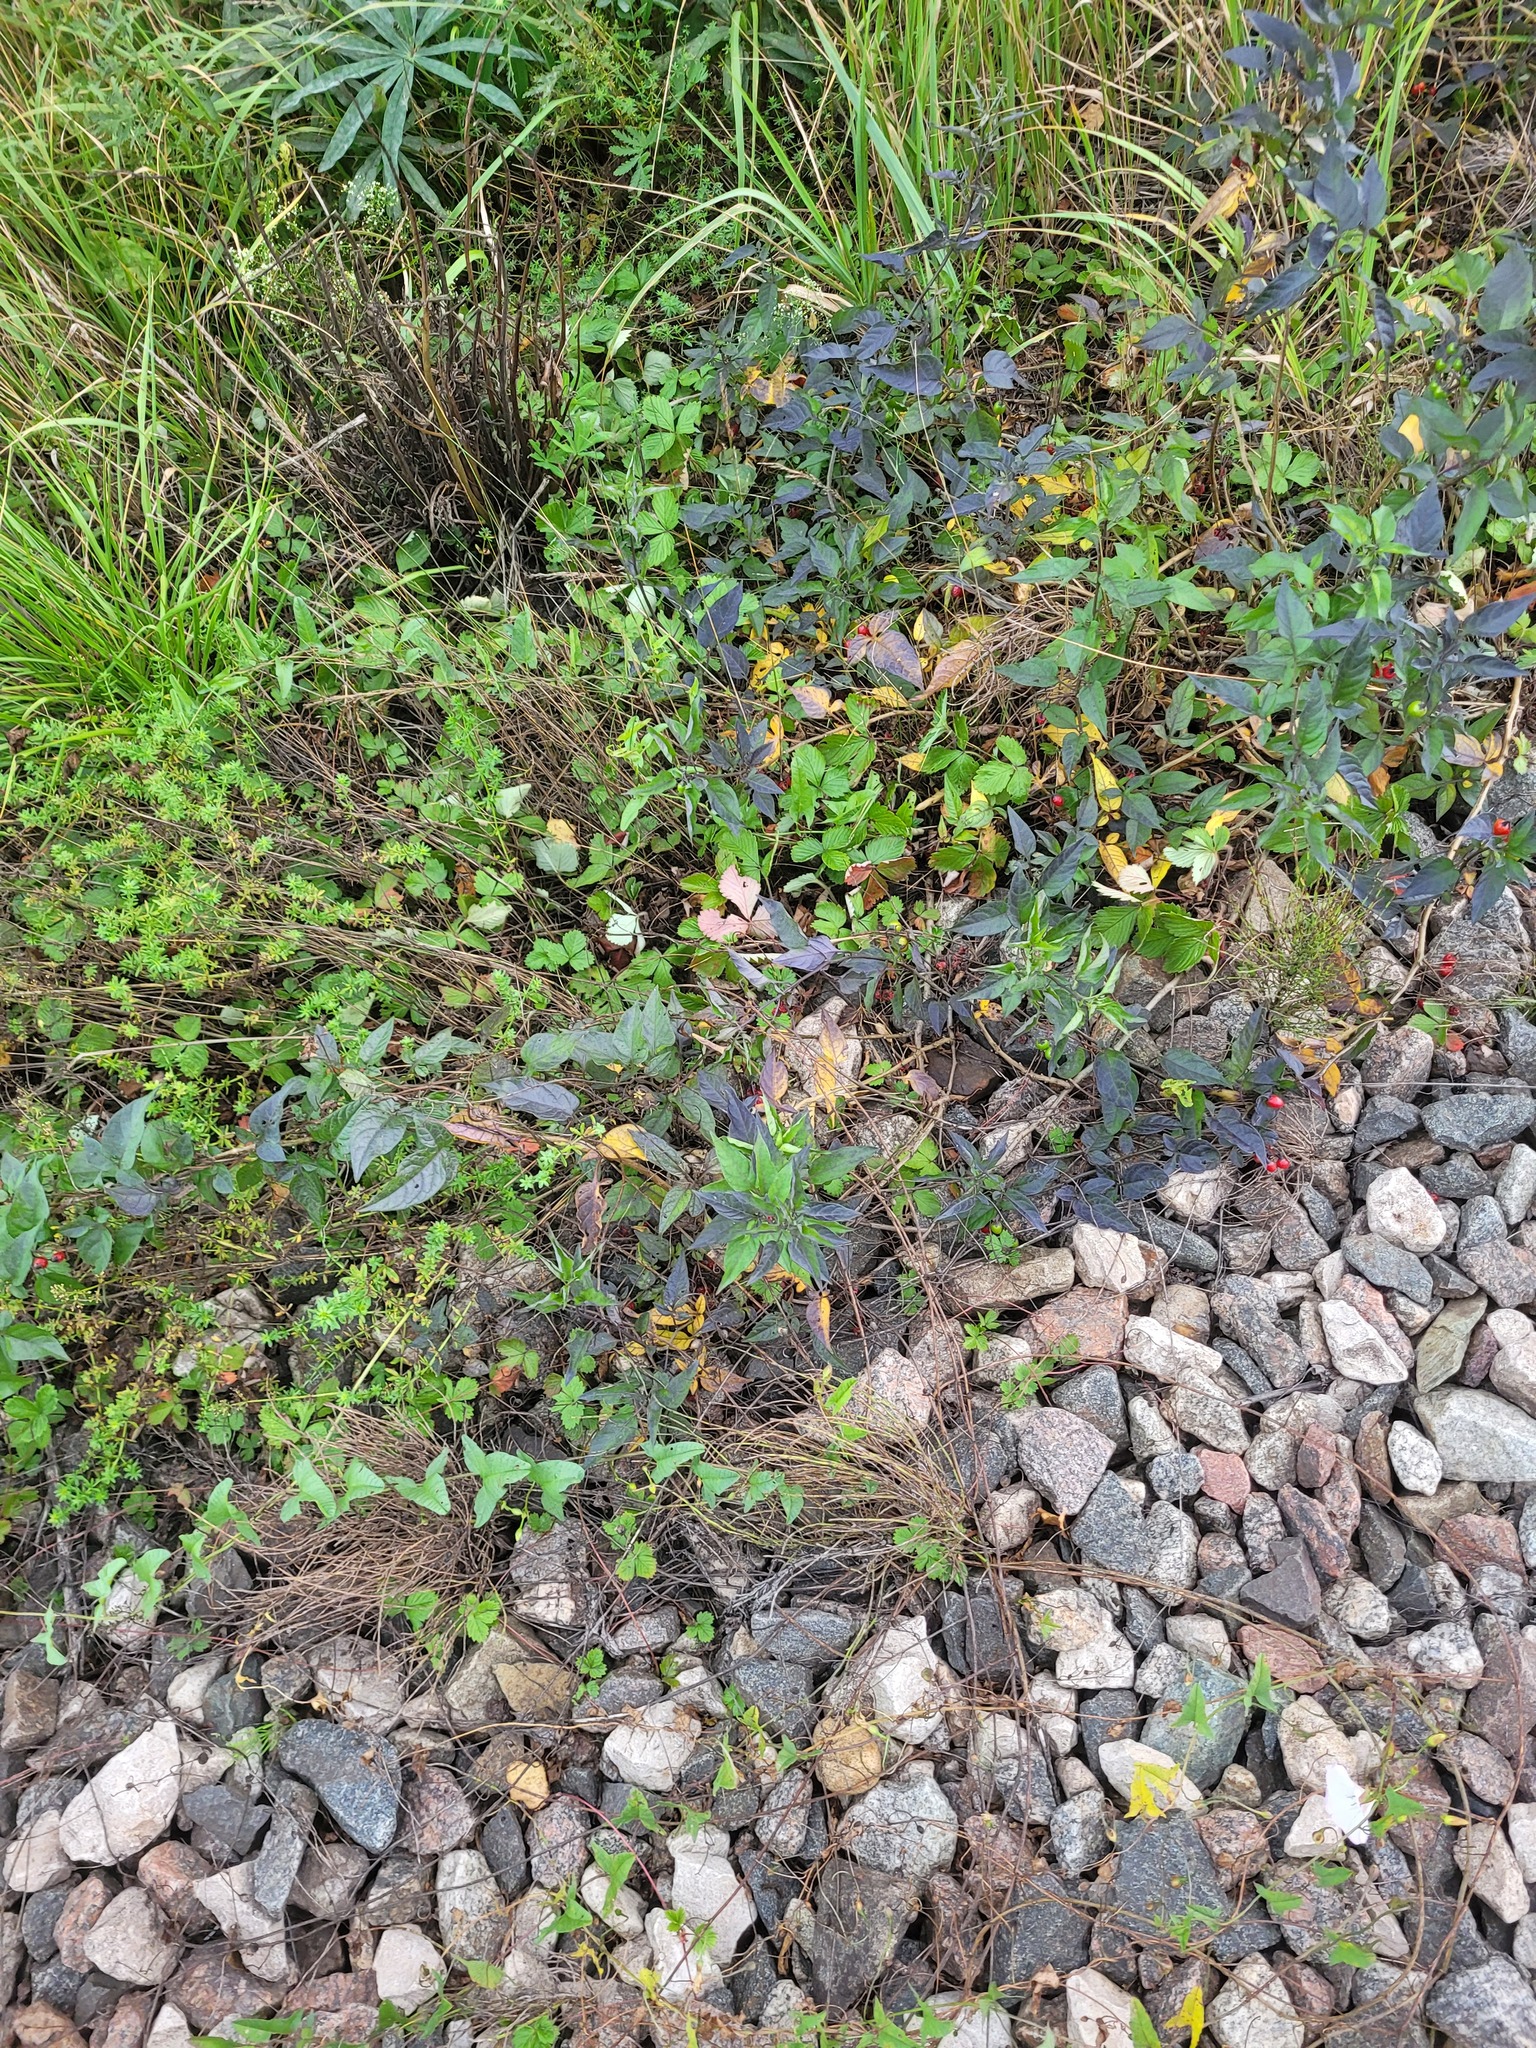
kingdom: Plantae
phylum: Tracheophyta
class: Magnoliopsida
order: Solanales
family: Solanaceae
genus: Solanum
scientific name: Solanum dulcamara
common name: Climbing nightshade
